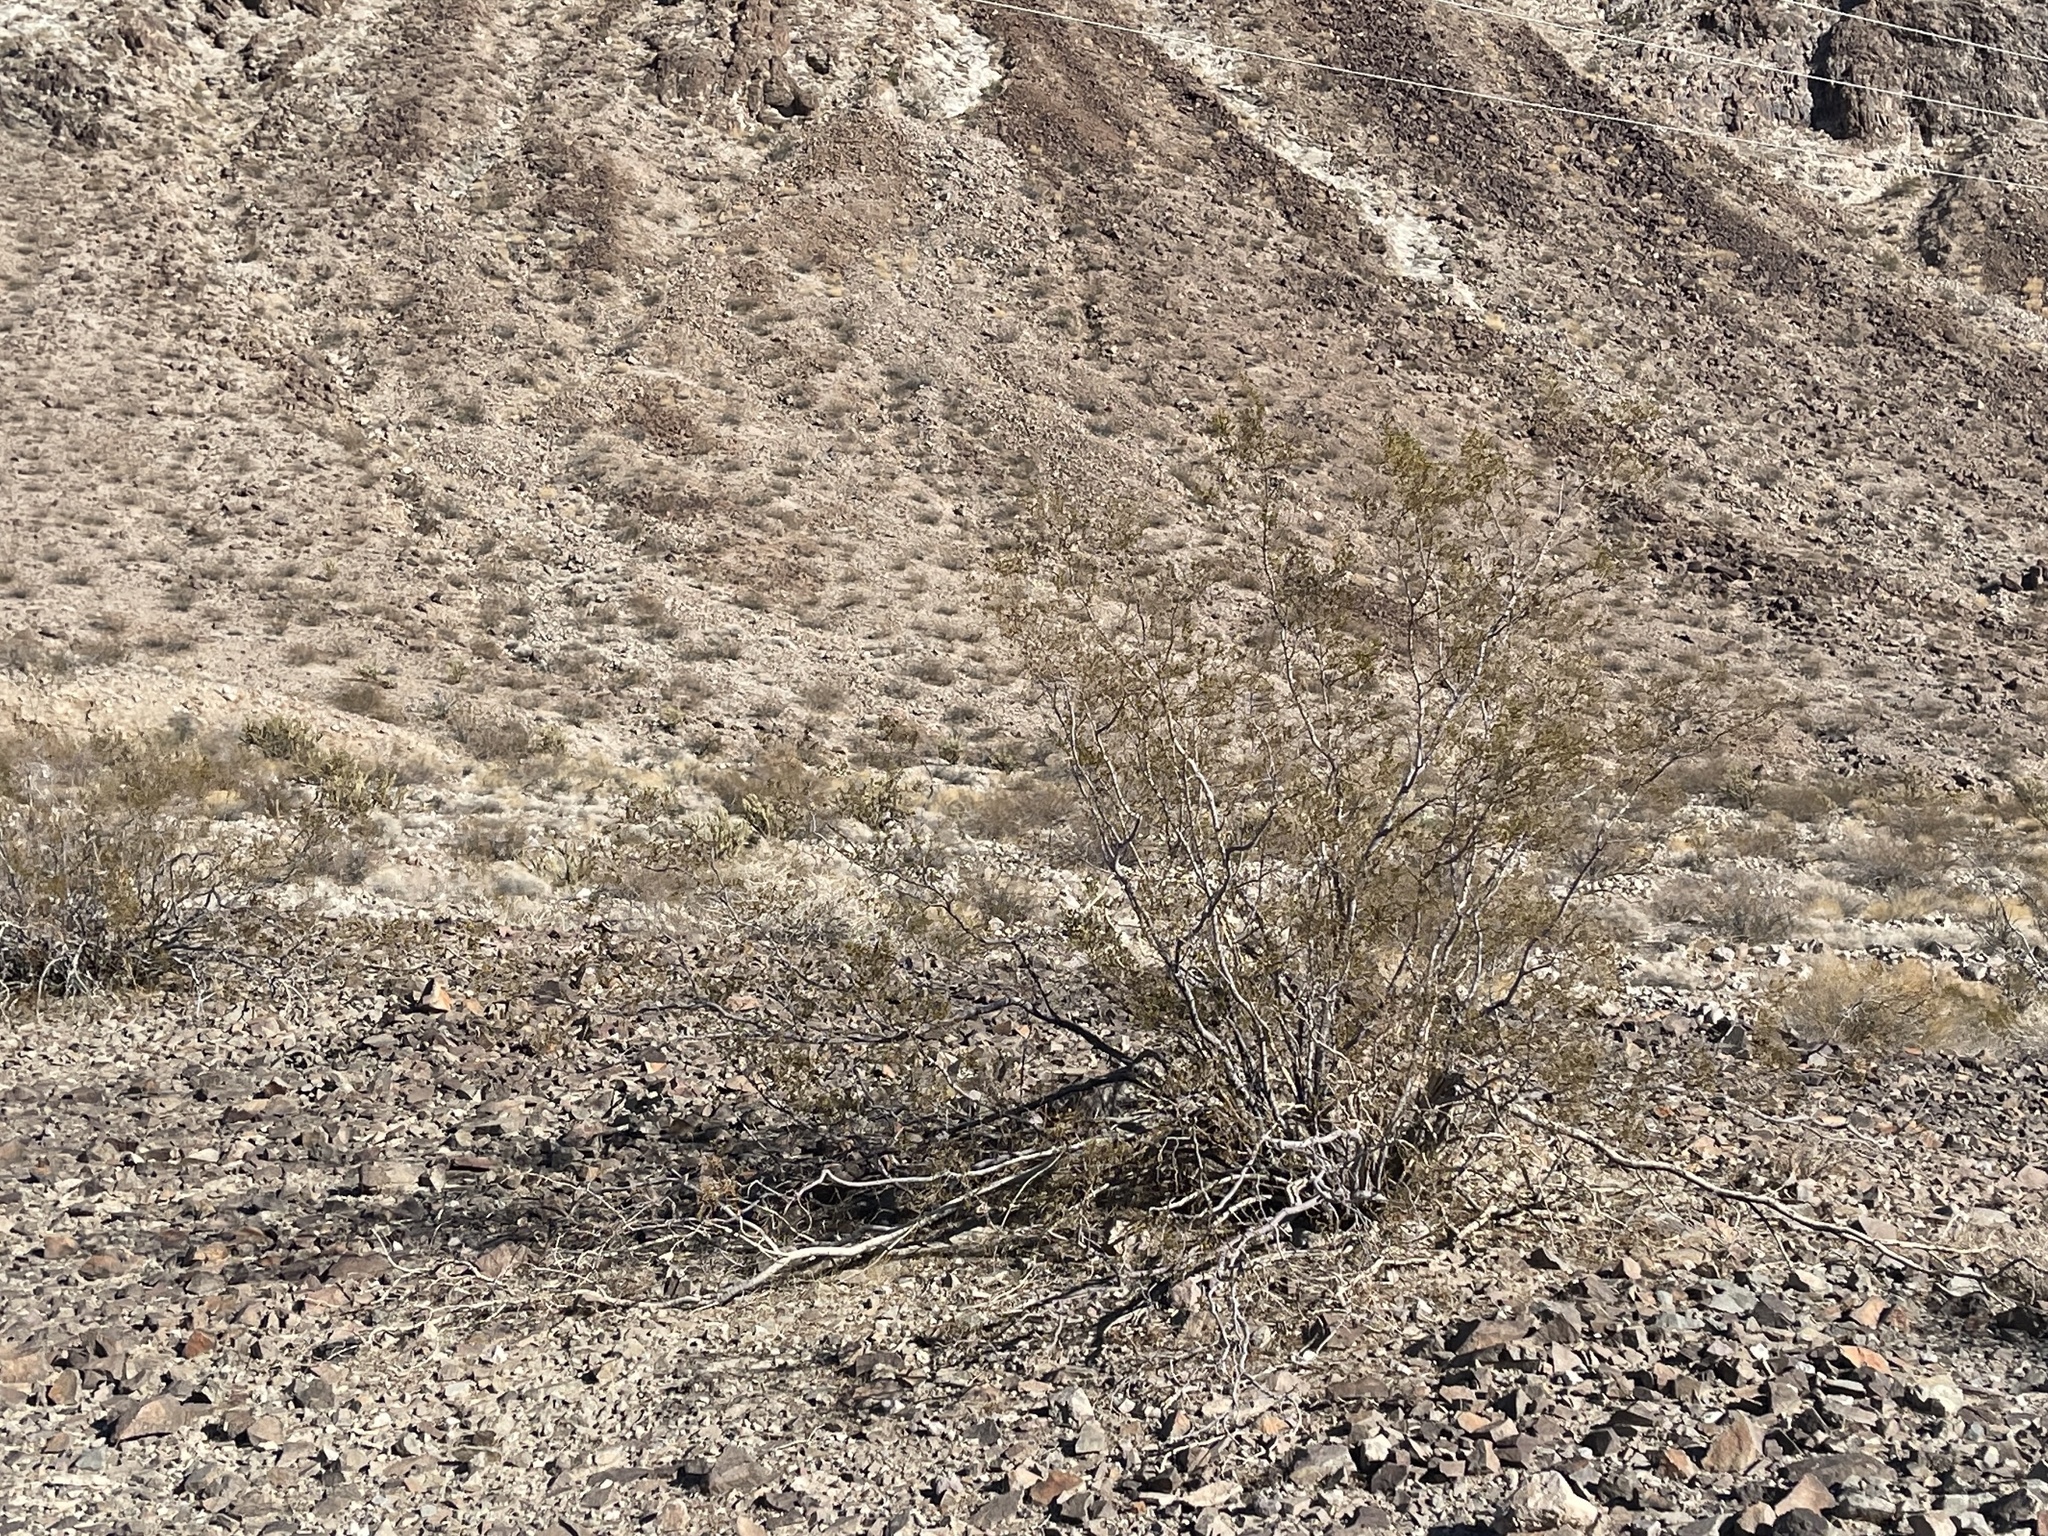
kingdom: Plantae
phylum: Tracheophyta
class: Magnoliopsida
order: Zygophyllales
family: Zygophyllaceae
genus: Larrea
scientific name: Larrea tridentata
